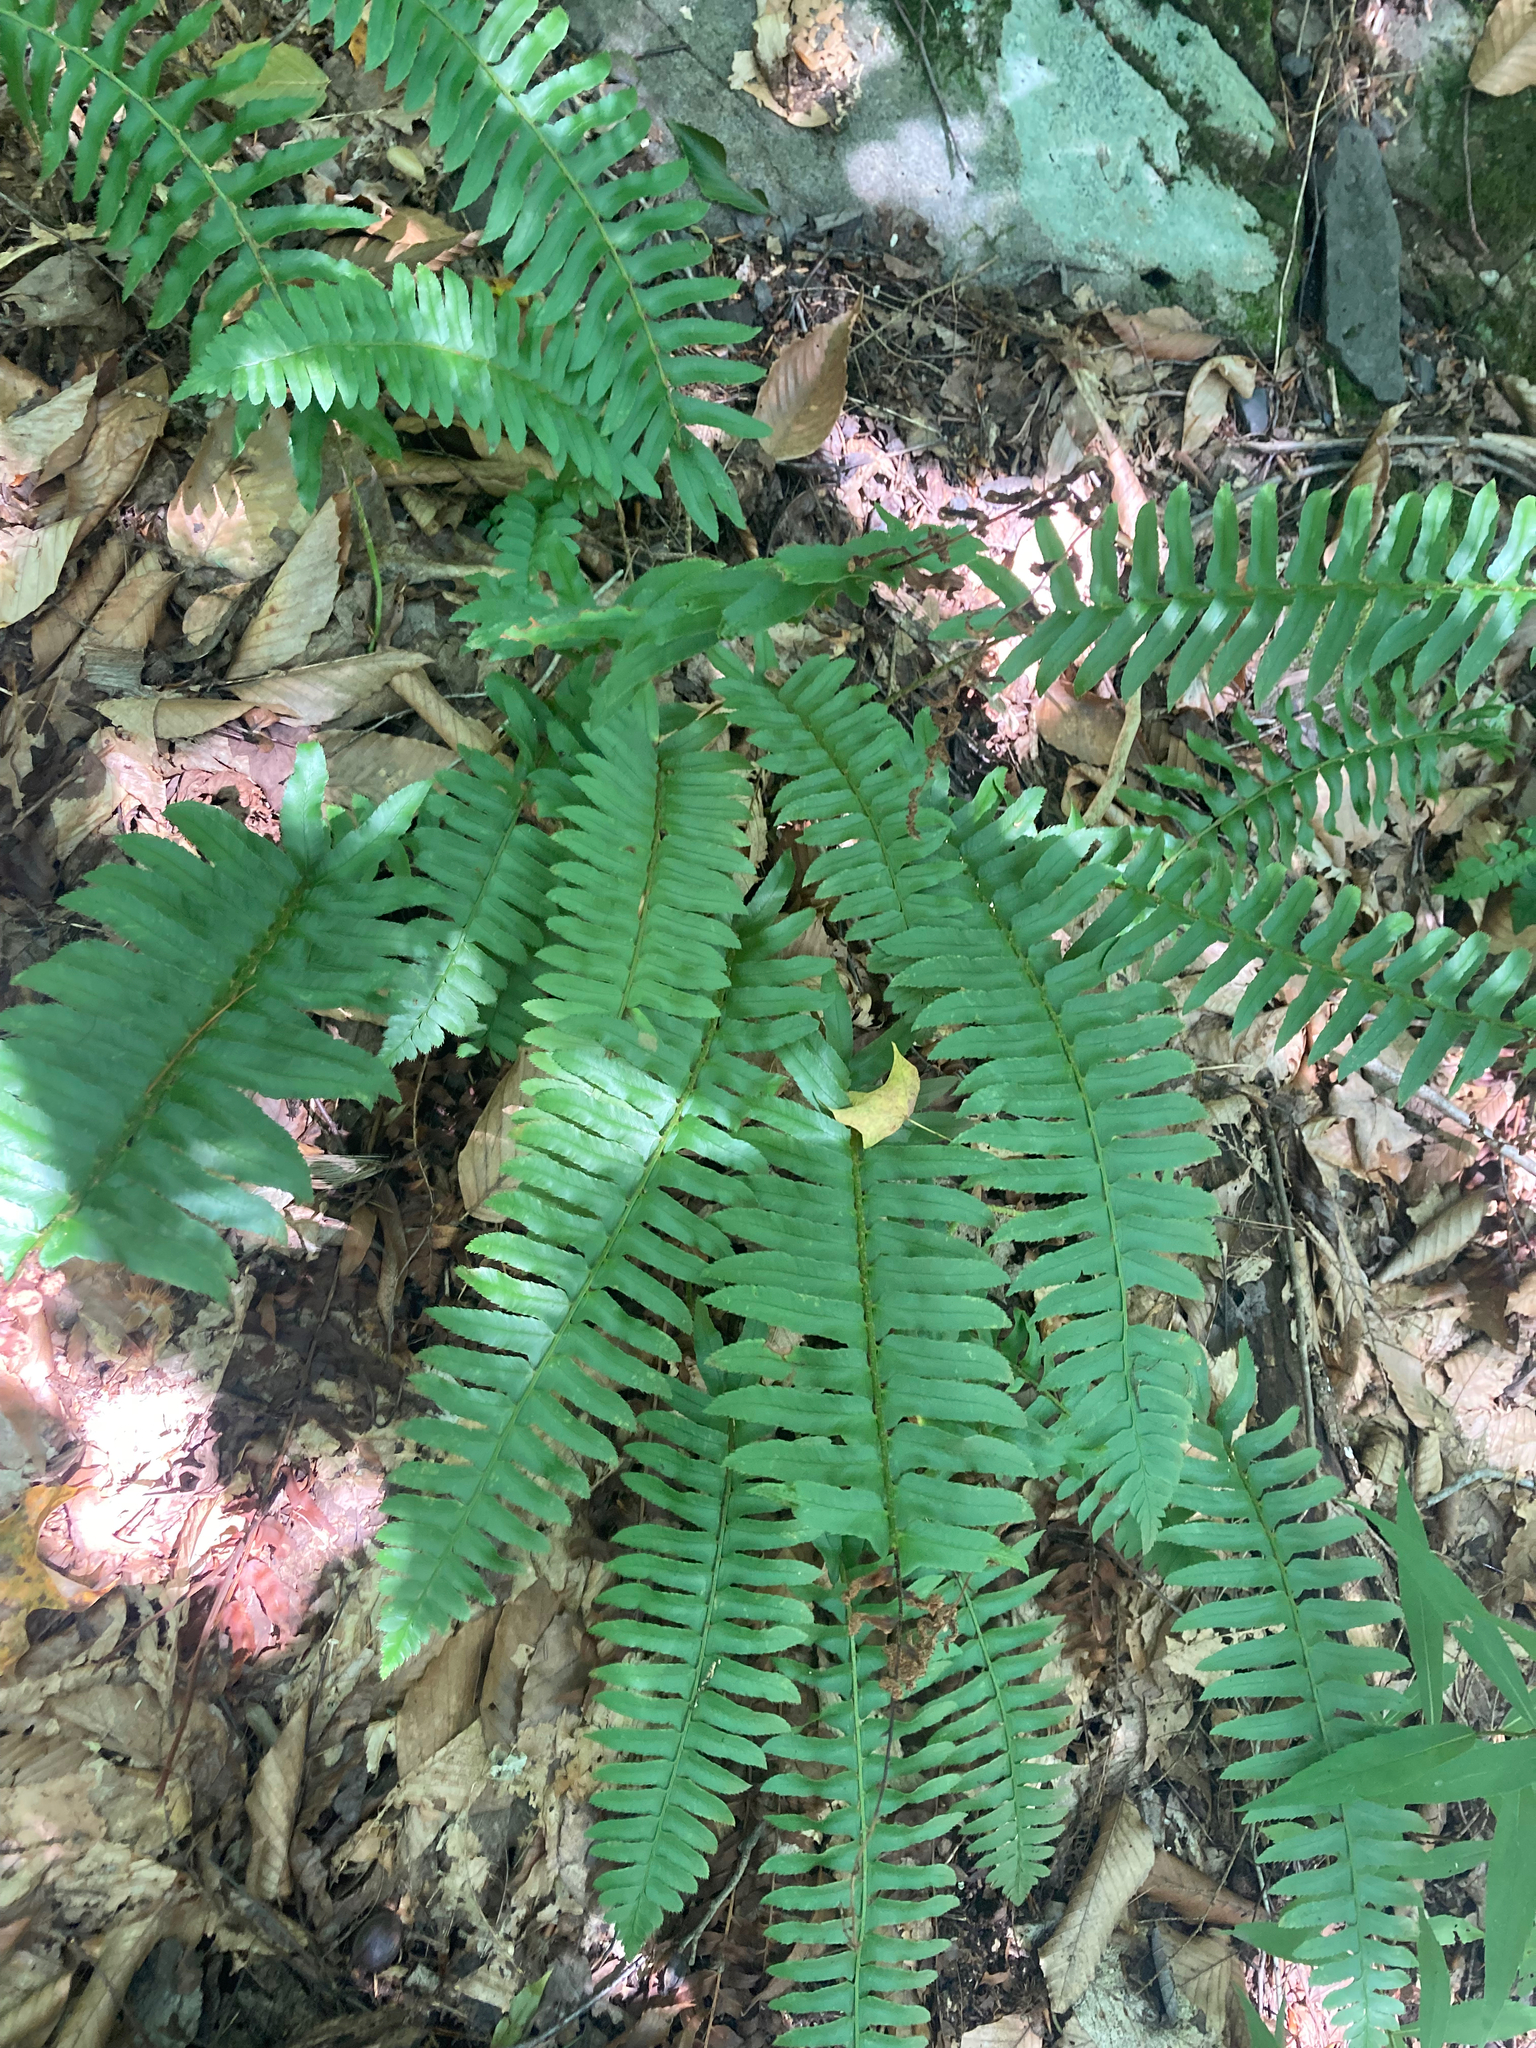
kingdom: Plantae
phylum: Tracheophyta
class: Polypodiopsida
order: Polypodiales
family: Dryopteridaceae
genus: Polystichum
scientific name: Polystichum acrostichoides
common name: Christmas fern
